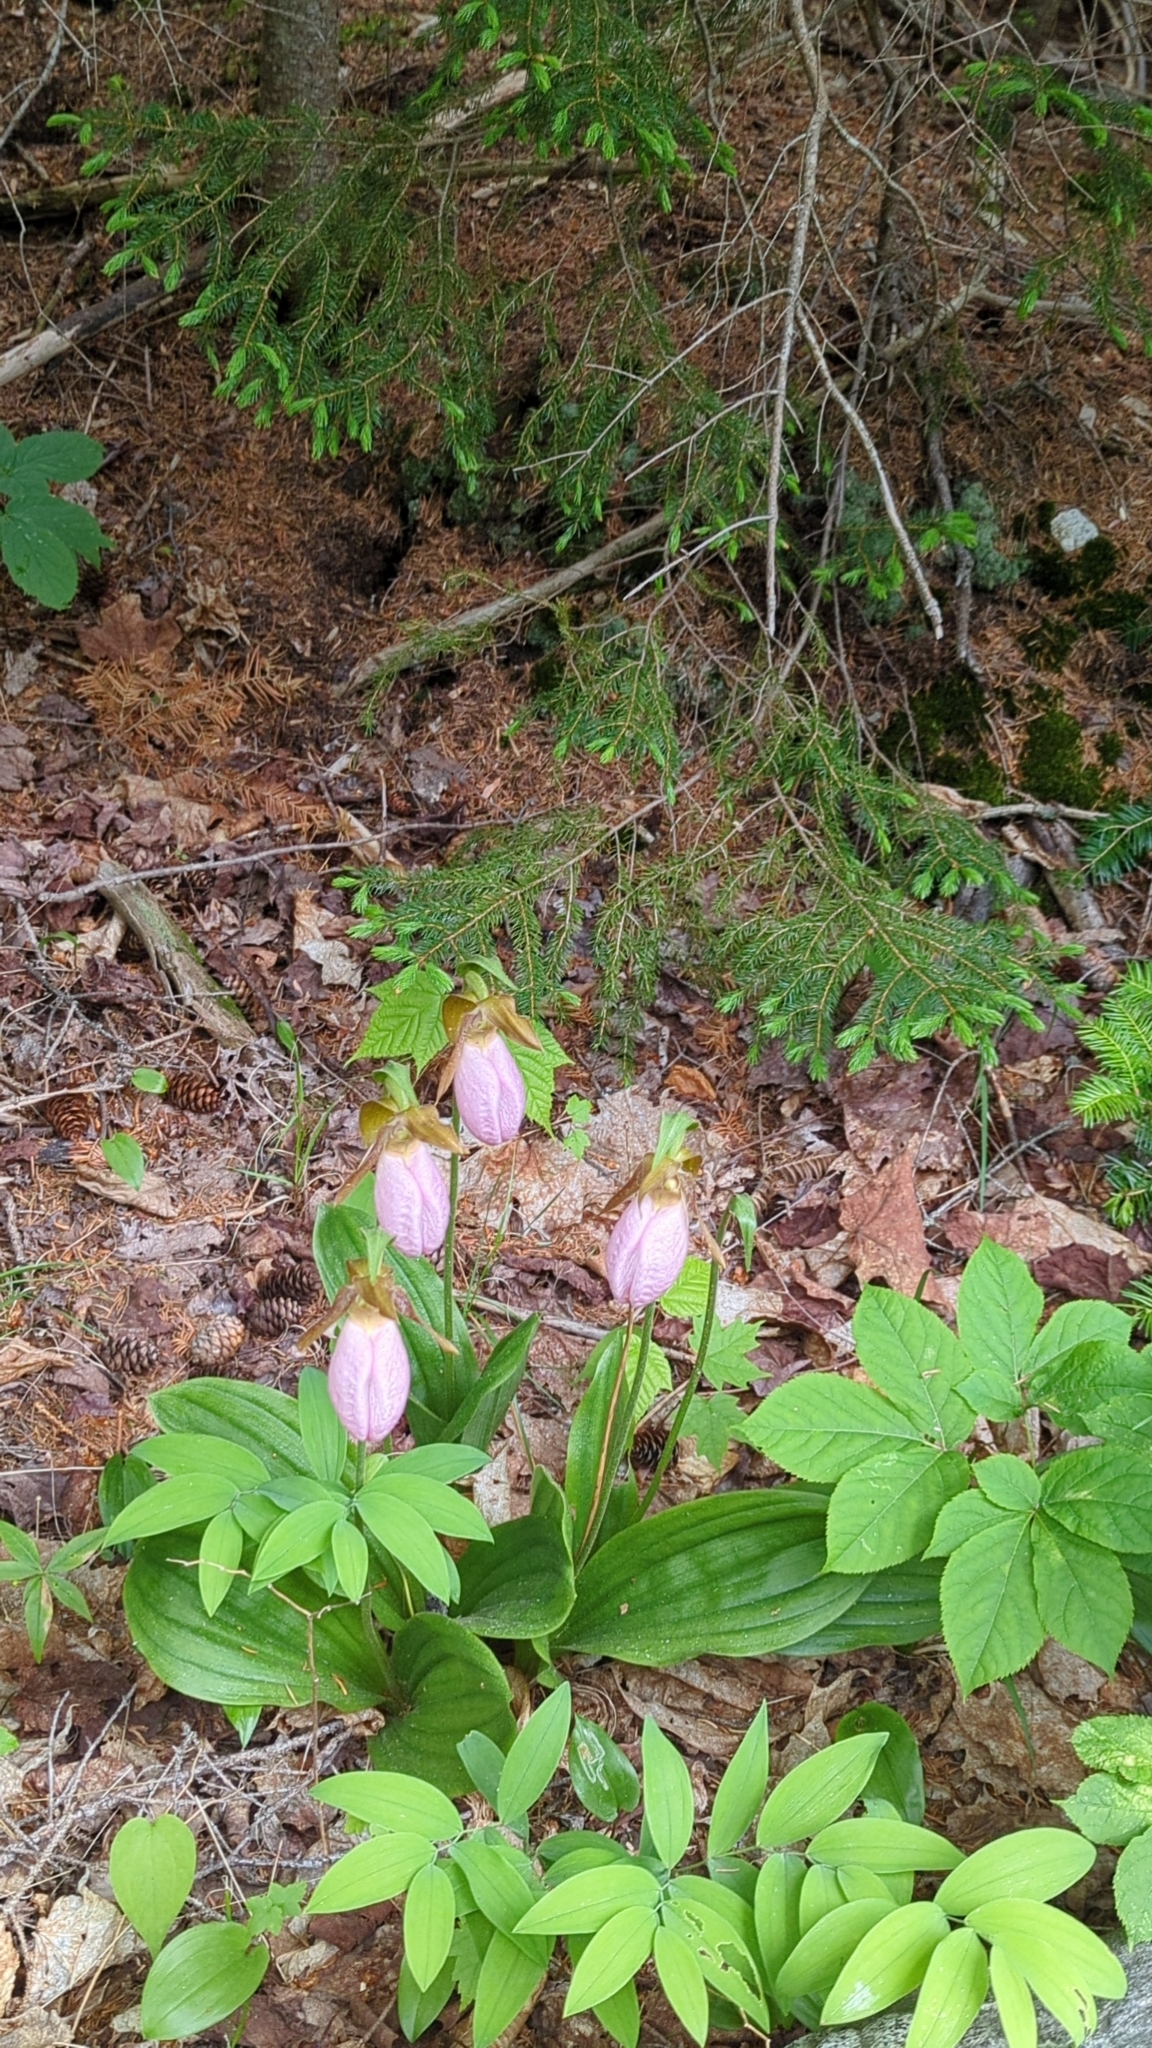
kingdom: Plantae
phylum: Tracheophyta
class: Liliopsida
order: Asparagales
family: Orchidaceae
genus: Cypripedium
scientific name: Cypripedium acaule
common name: Pink lady's-slipper
